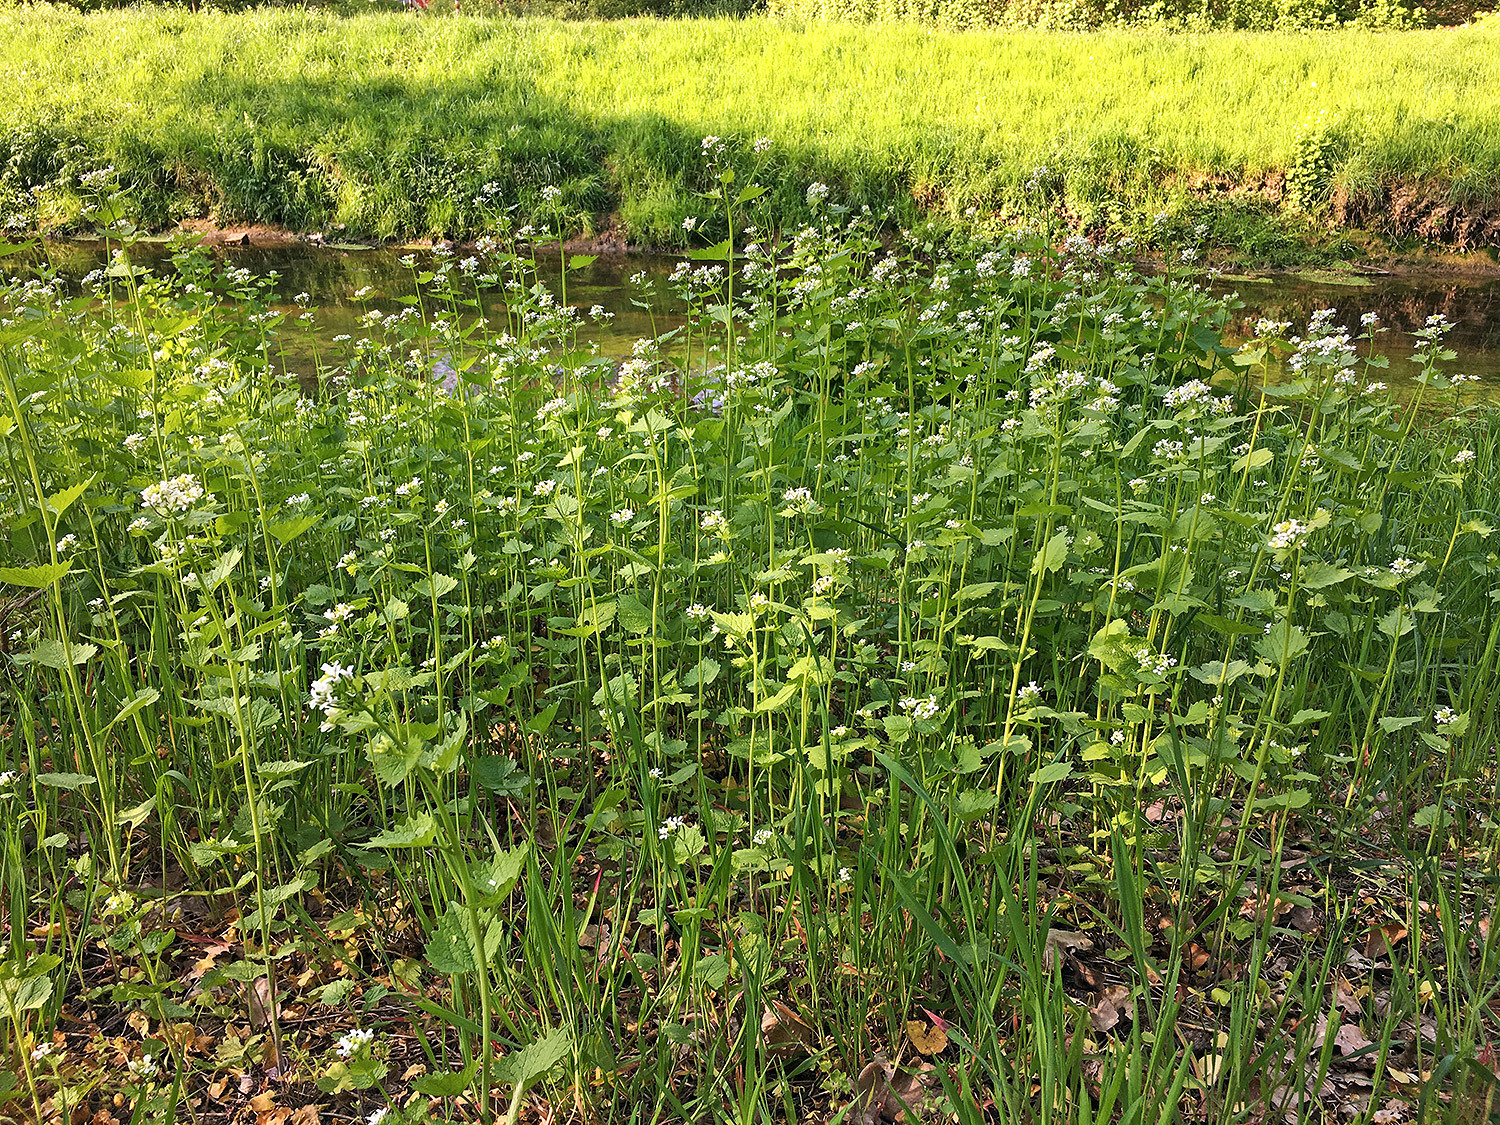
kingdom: Plantae
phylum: Tracheophyta
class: Magnoliopsida
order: Brassicales
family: Brassicaceae
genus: Alliaria
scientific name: Alliaria petiolata
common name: Garlic mustard
